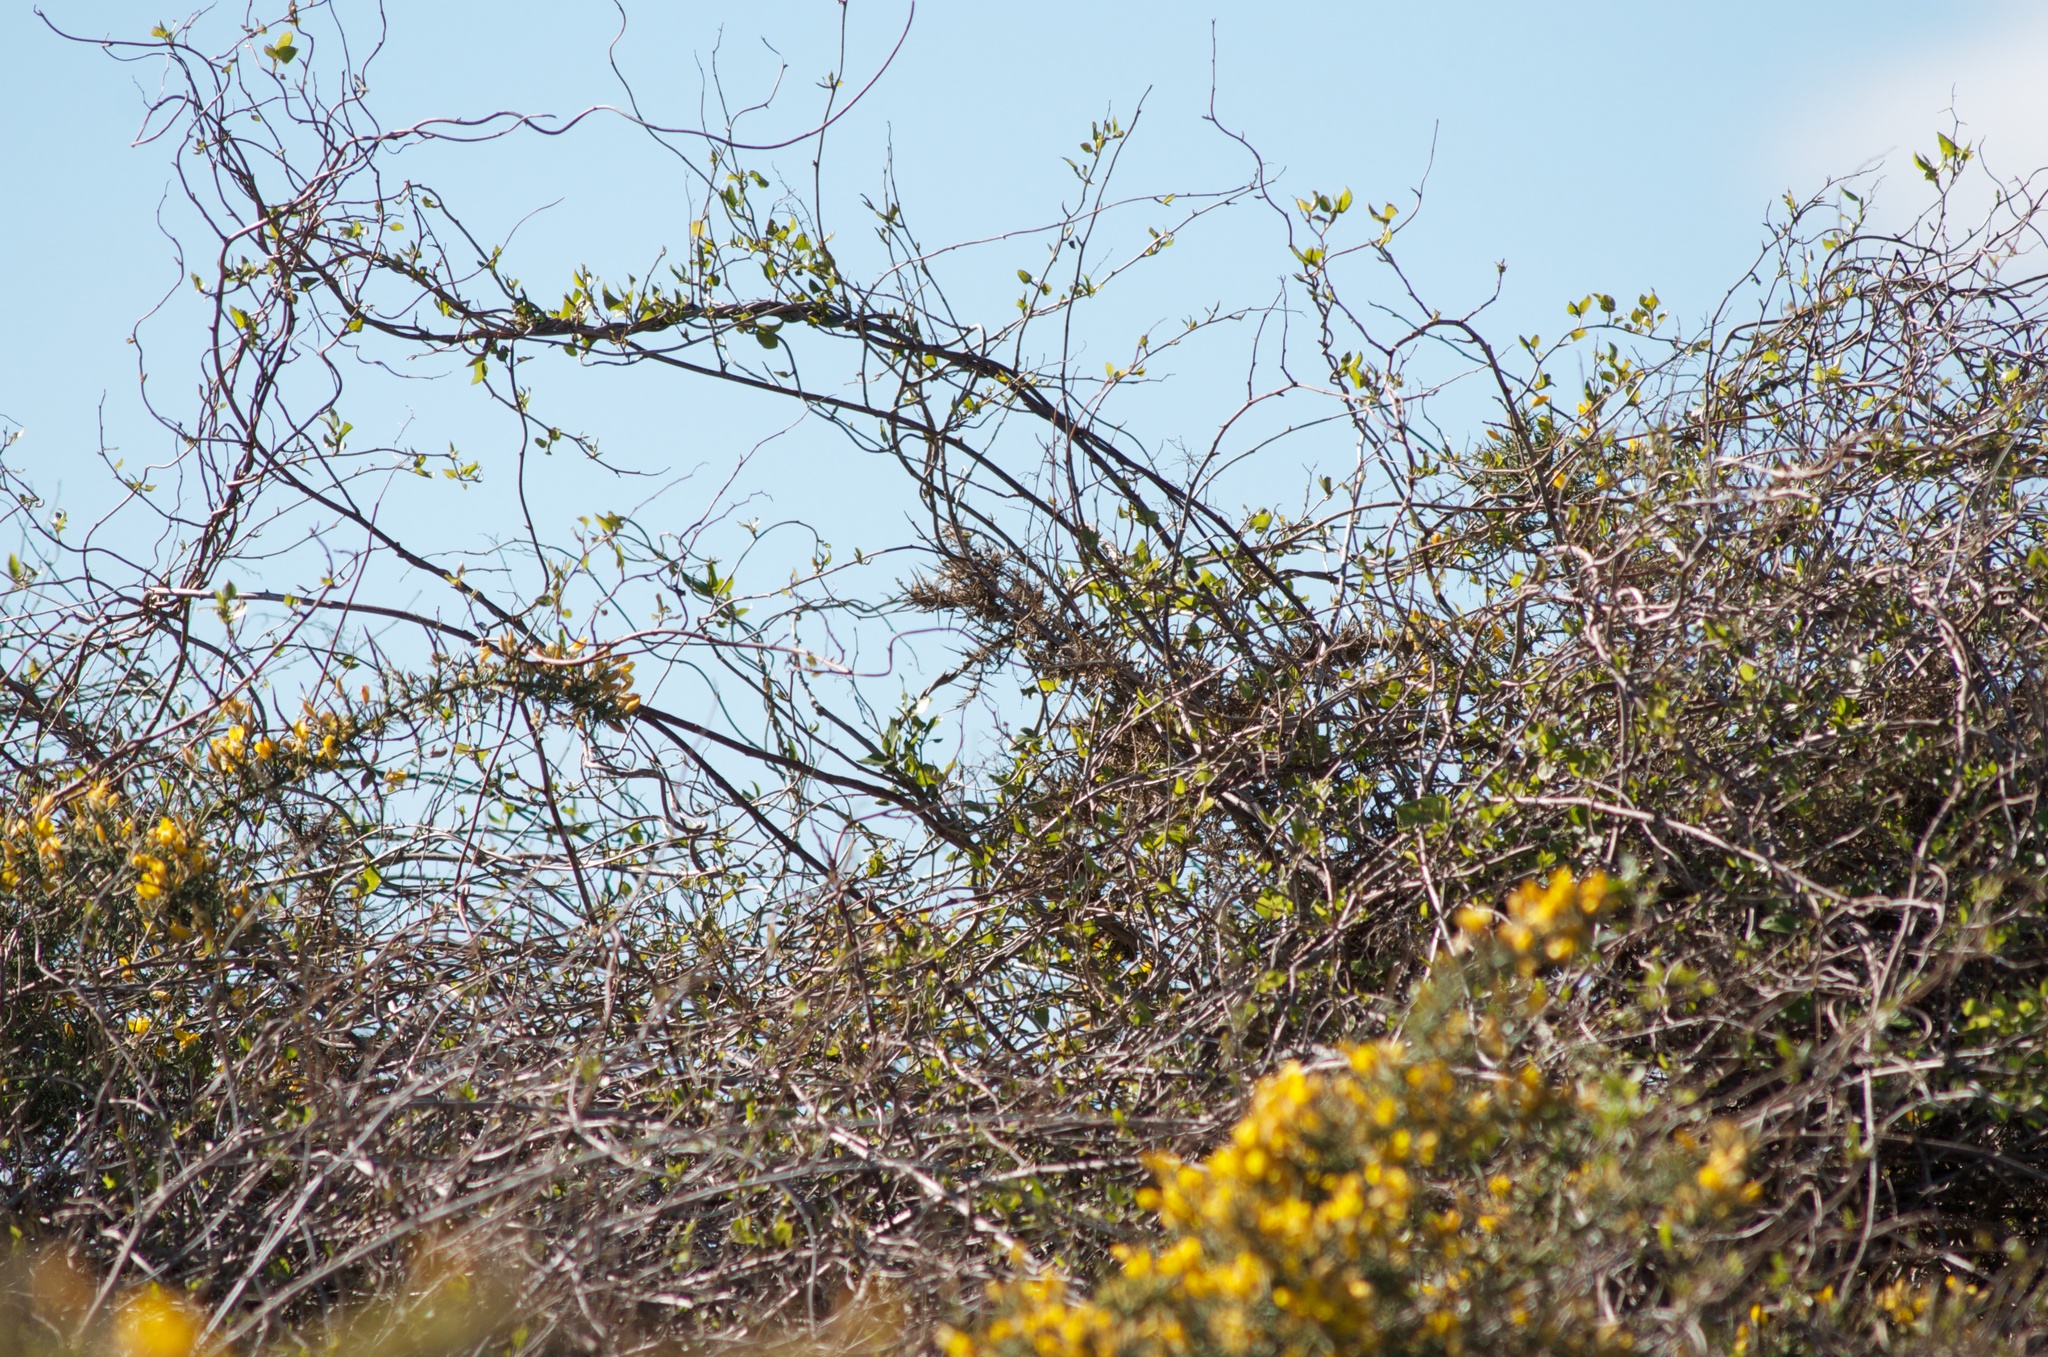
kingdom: Plantae
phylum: Tracheophyta
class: Magnoliopsida
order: Caryophyllales
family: Polygonaceae
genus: Muehlenbeckia
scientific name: Muehlenbeckia australis
